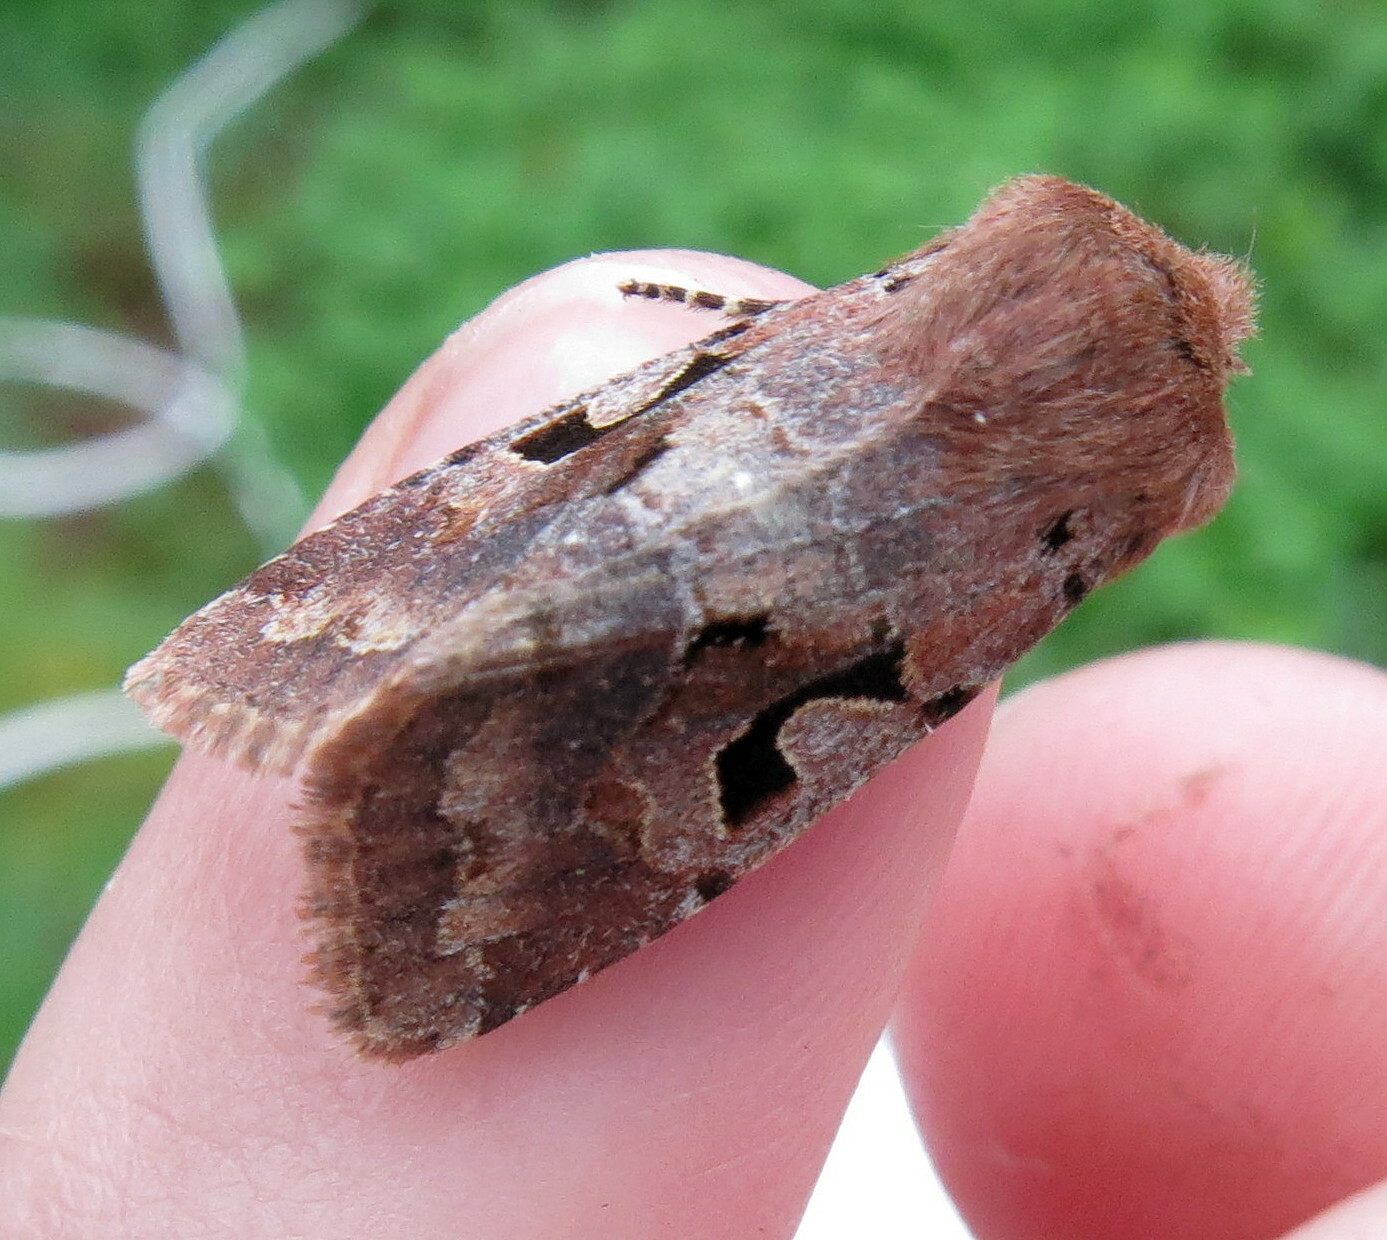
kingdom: Animalia
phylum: Arthropoda
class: Insecta
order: Lepidoptera
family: Noctuidae
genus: Orthosia
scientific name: Orthosia gothica
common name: Hebrew character
